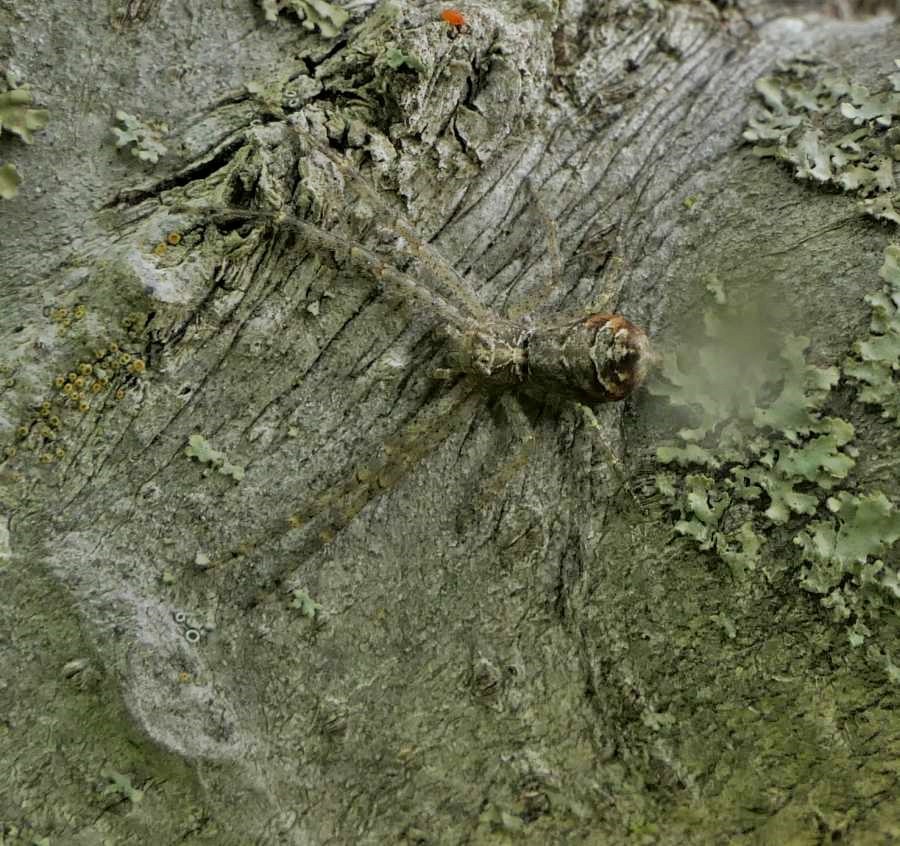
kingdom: Animalia
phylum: Arthropoda
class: Arachnida
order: Araneae
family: Thomisidae
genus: Tmarus
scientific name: Tmarus angulatus
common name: Tuberculated crab spider
